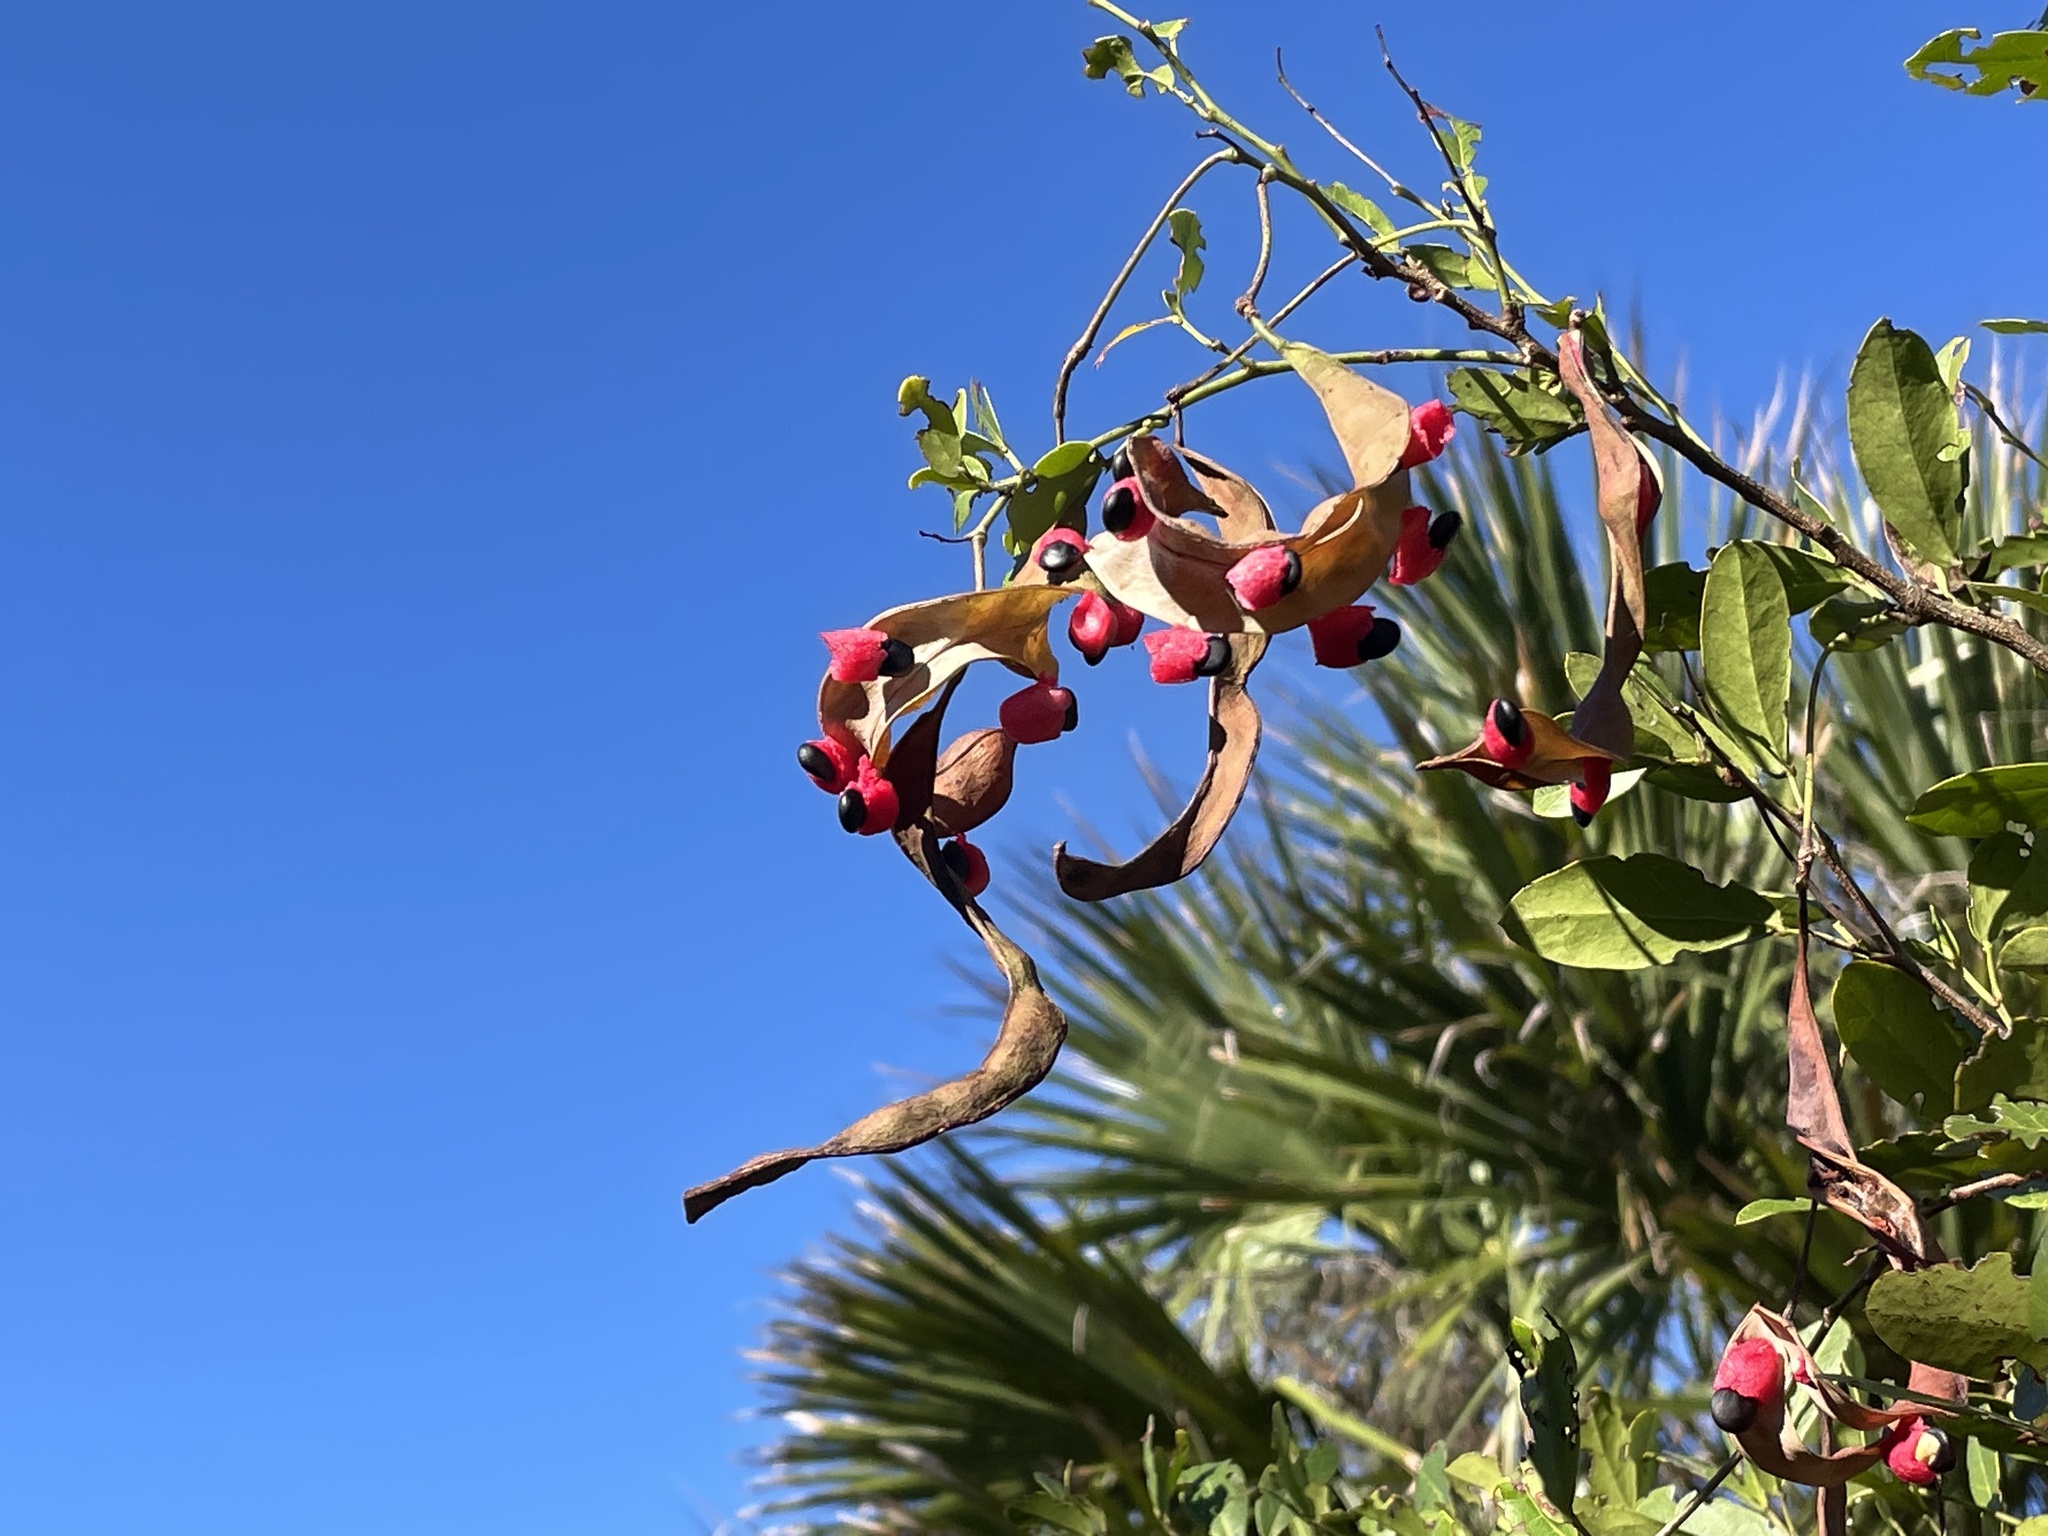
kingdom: Plantae
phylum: Tracheophyta
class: Magnoliopsida
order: Fabales
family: Fabaceae
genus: Pithecellobium
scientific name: Pithecellobium keyense
